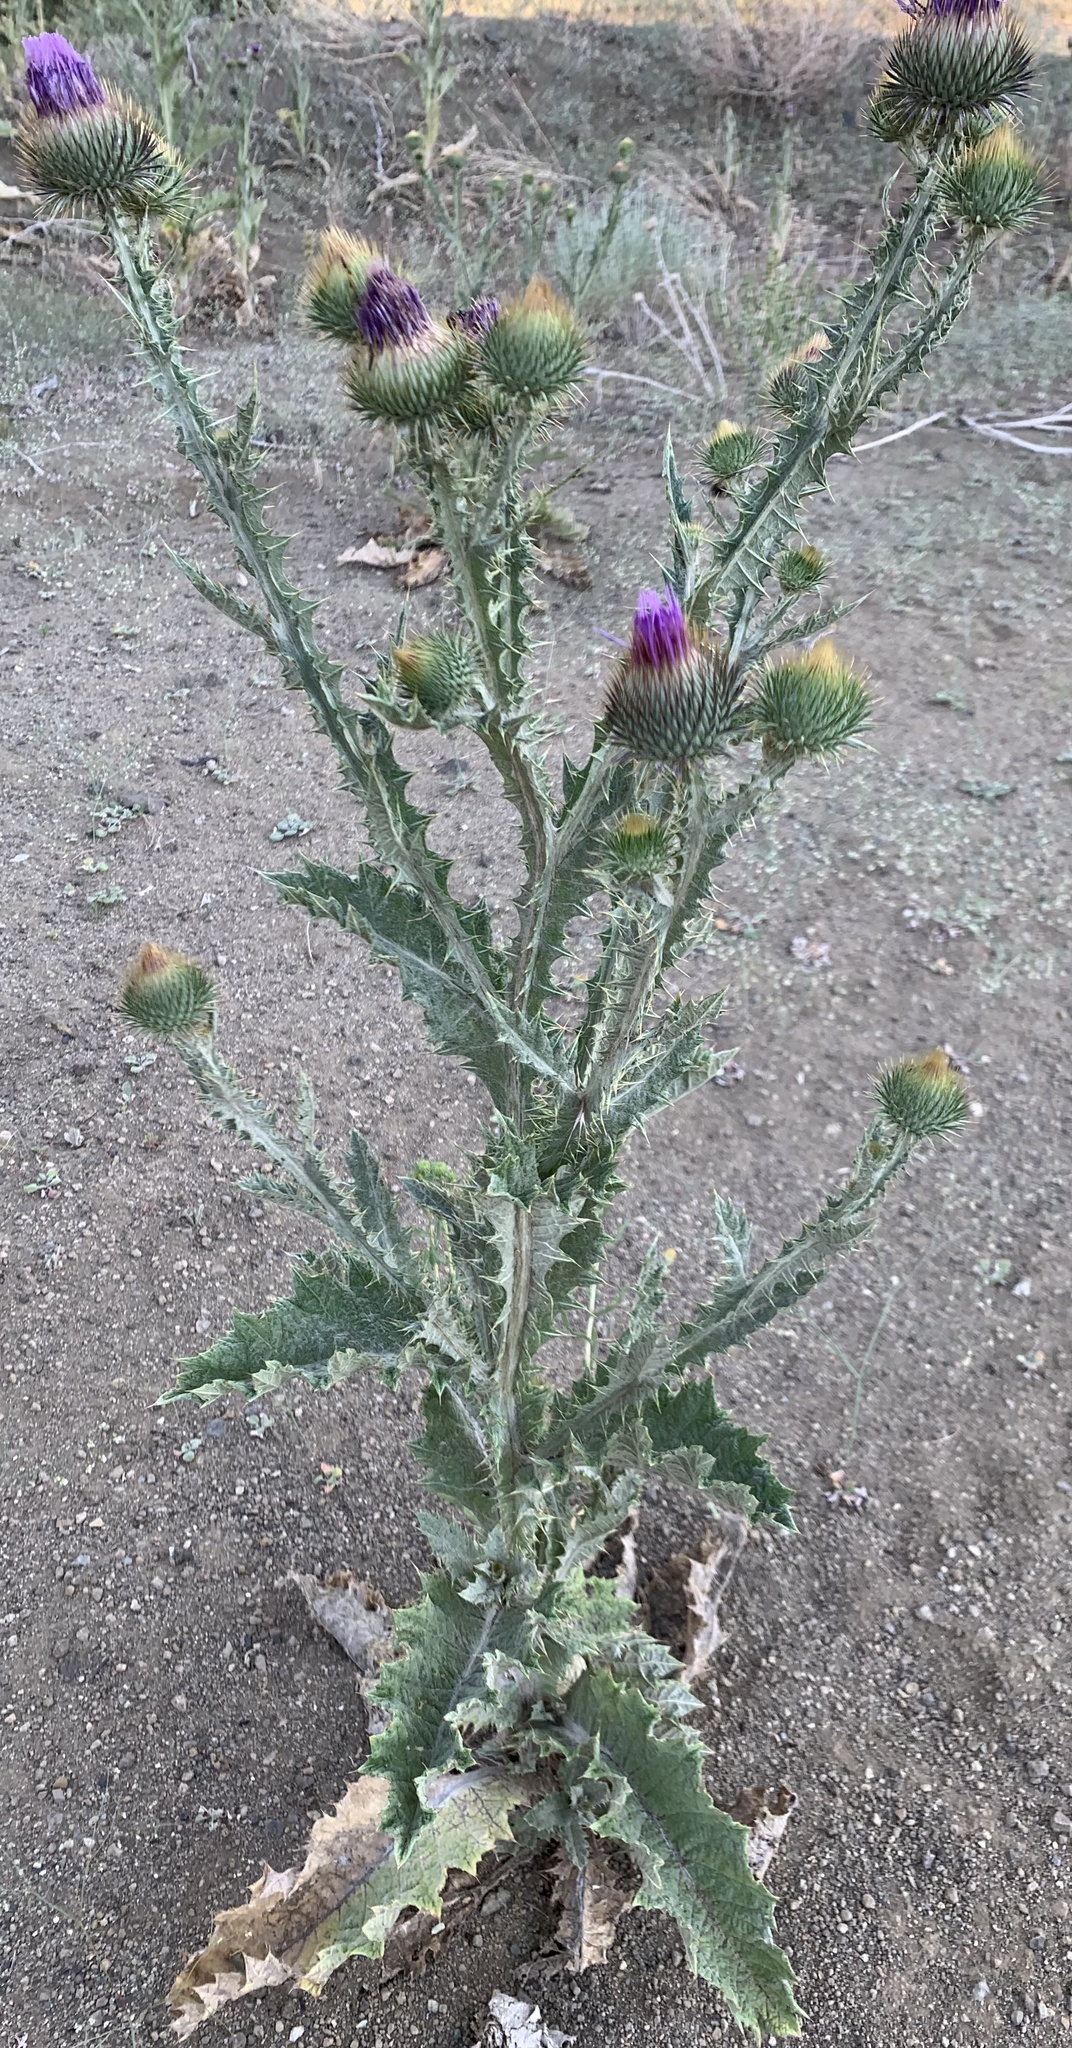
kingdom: Plantae
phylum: Tracheophyta
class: Magnoliopsida
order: Asterales
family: Asteraceae
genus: Onopordum
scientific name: Onopordum acanthium
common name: Scotch thistle
